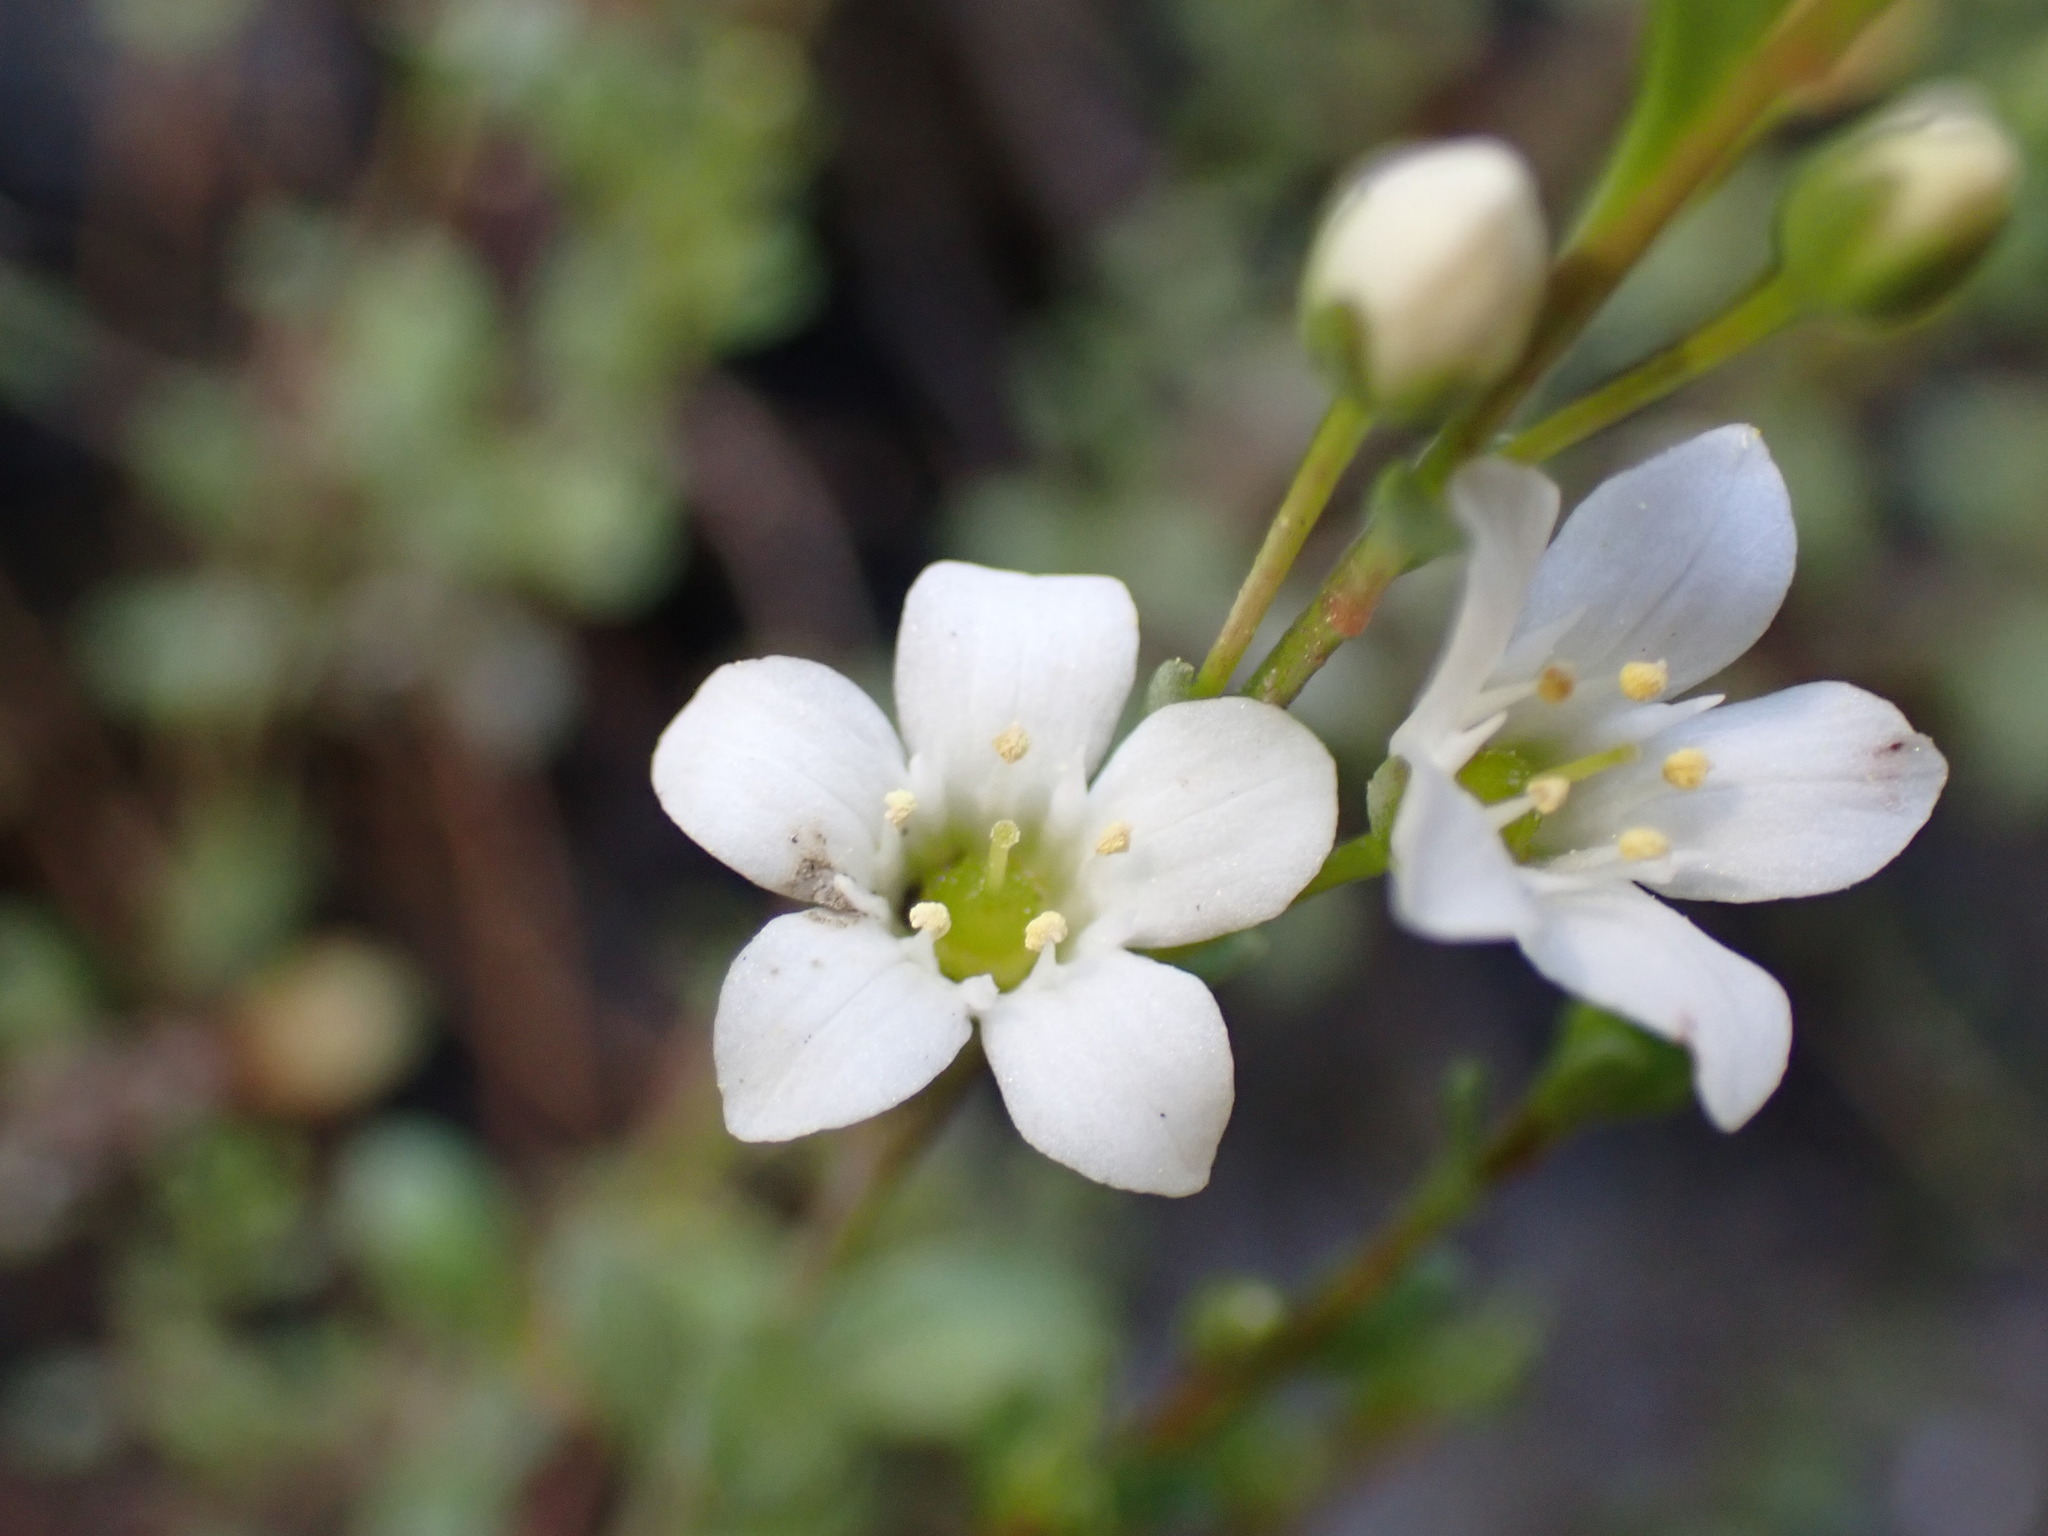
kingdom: Plantae
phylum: Tracheophyta
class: Magnoliopsida
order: Ericales
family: Primulaceae
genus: Samolus
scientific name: Samolus repens
